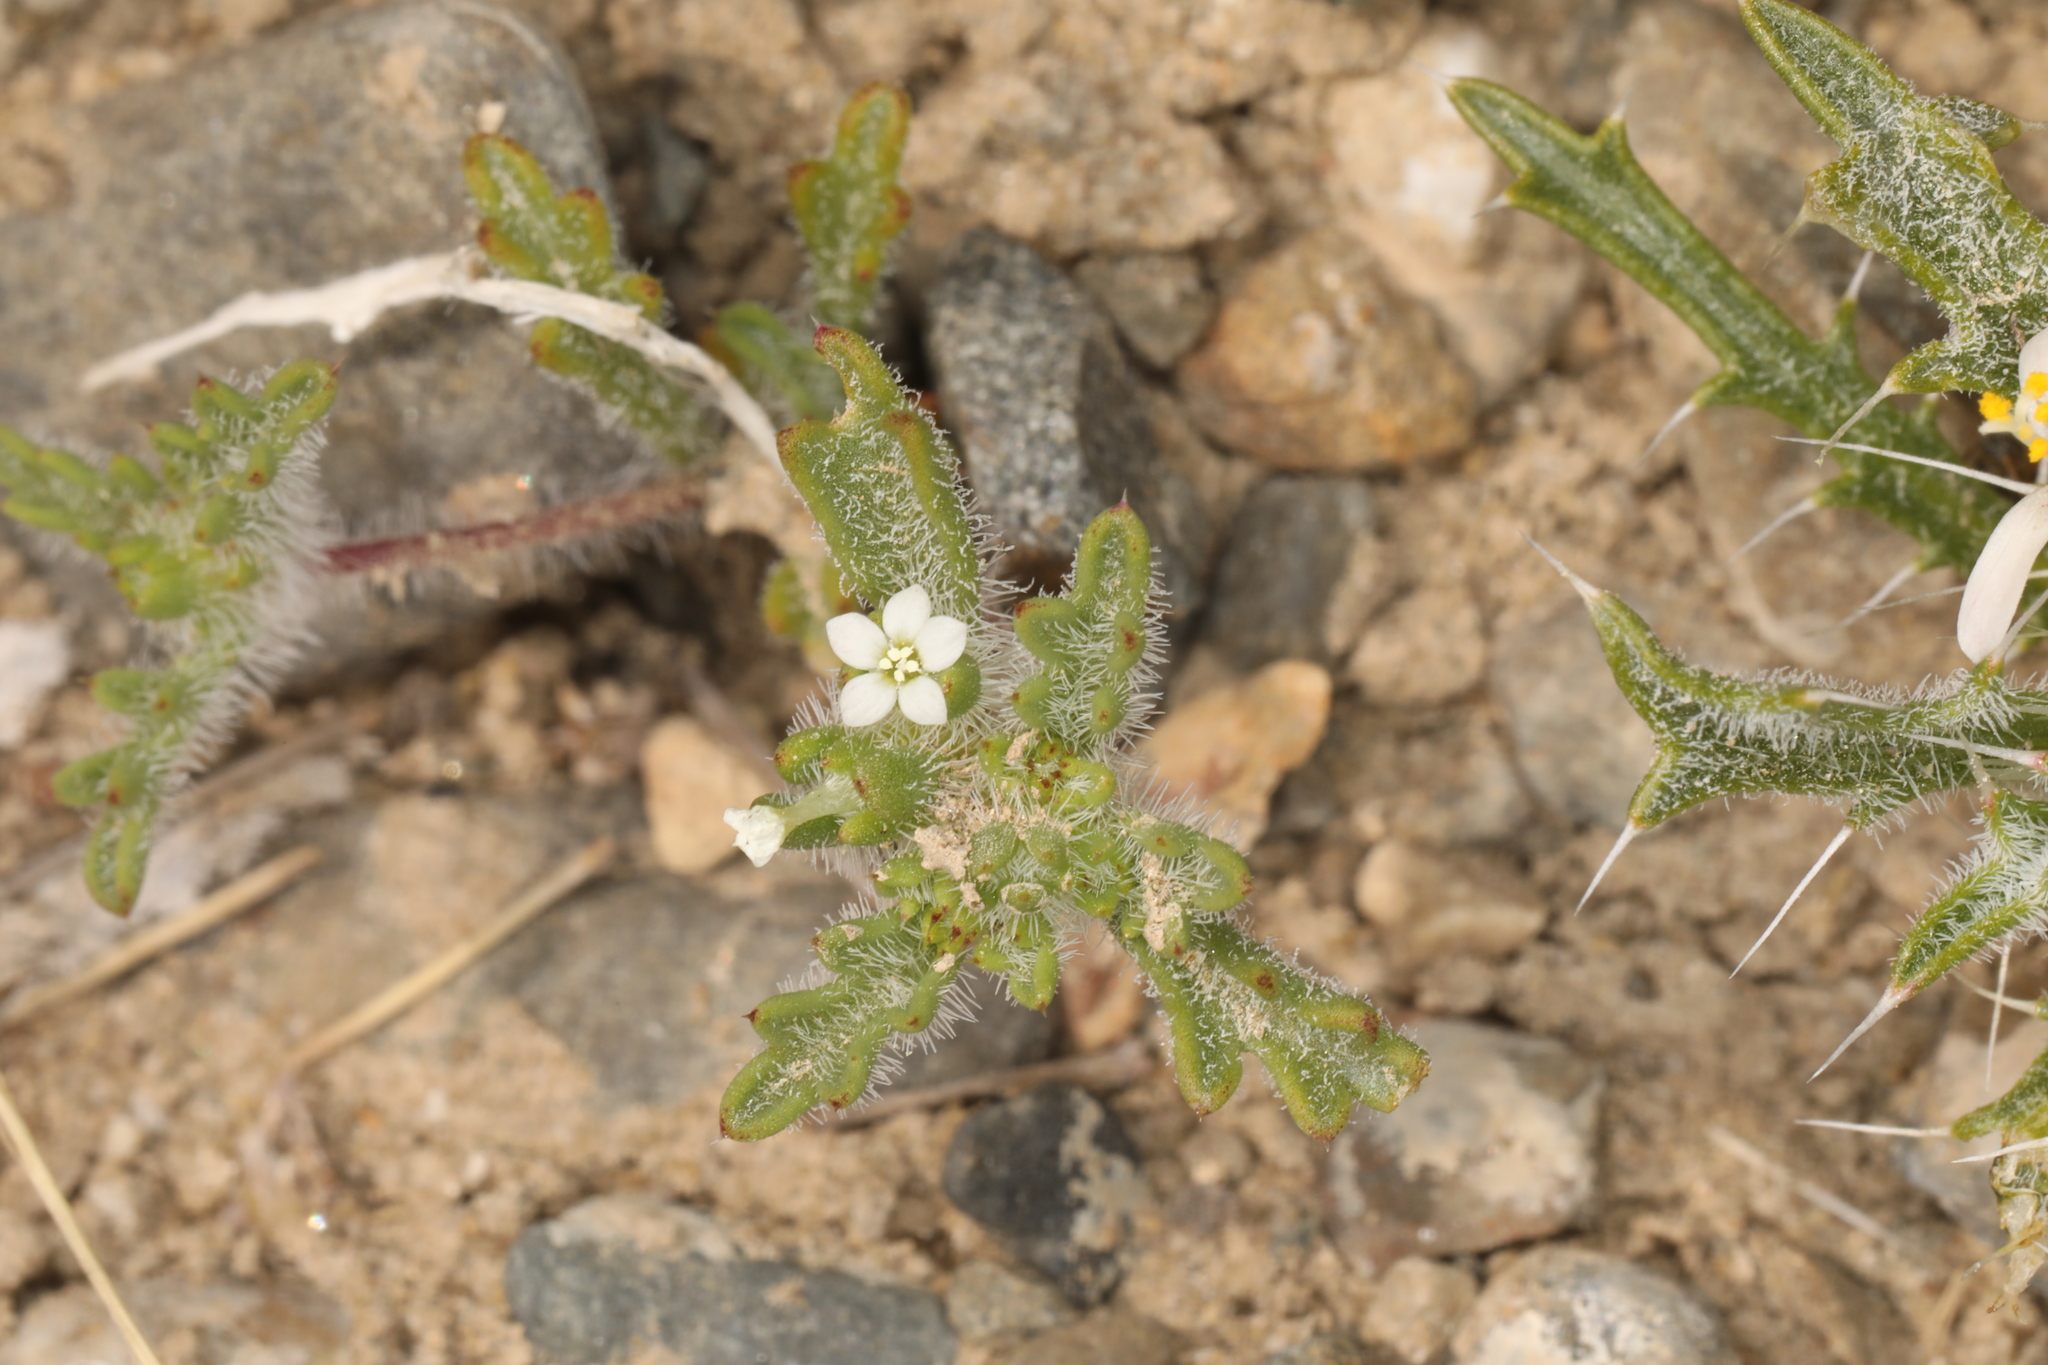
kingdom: Plantae
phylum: Tracheophyta
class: Magnoliopsida
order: Ericales
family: Polemoniaceae
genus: Ipomopsis
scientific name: Ipomopsis polycladon
